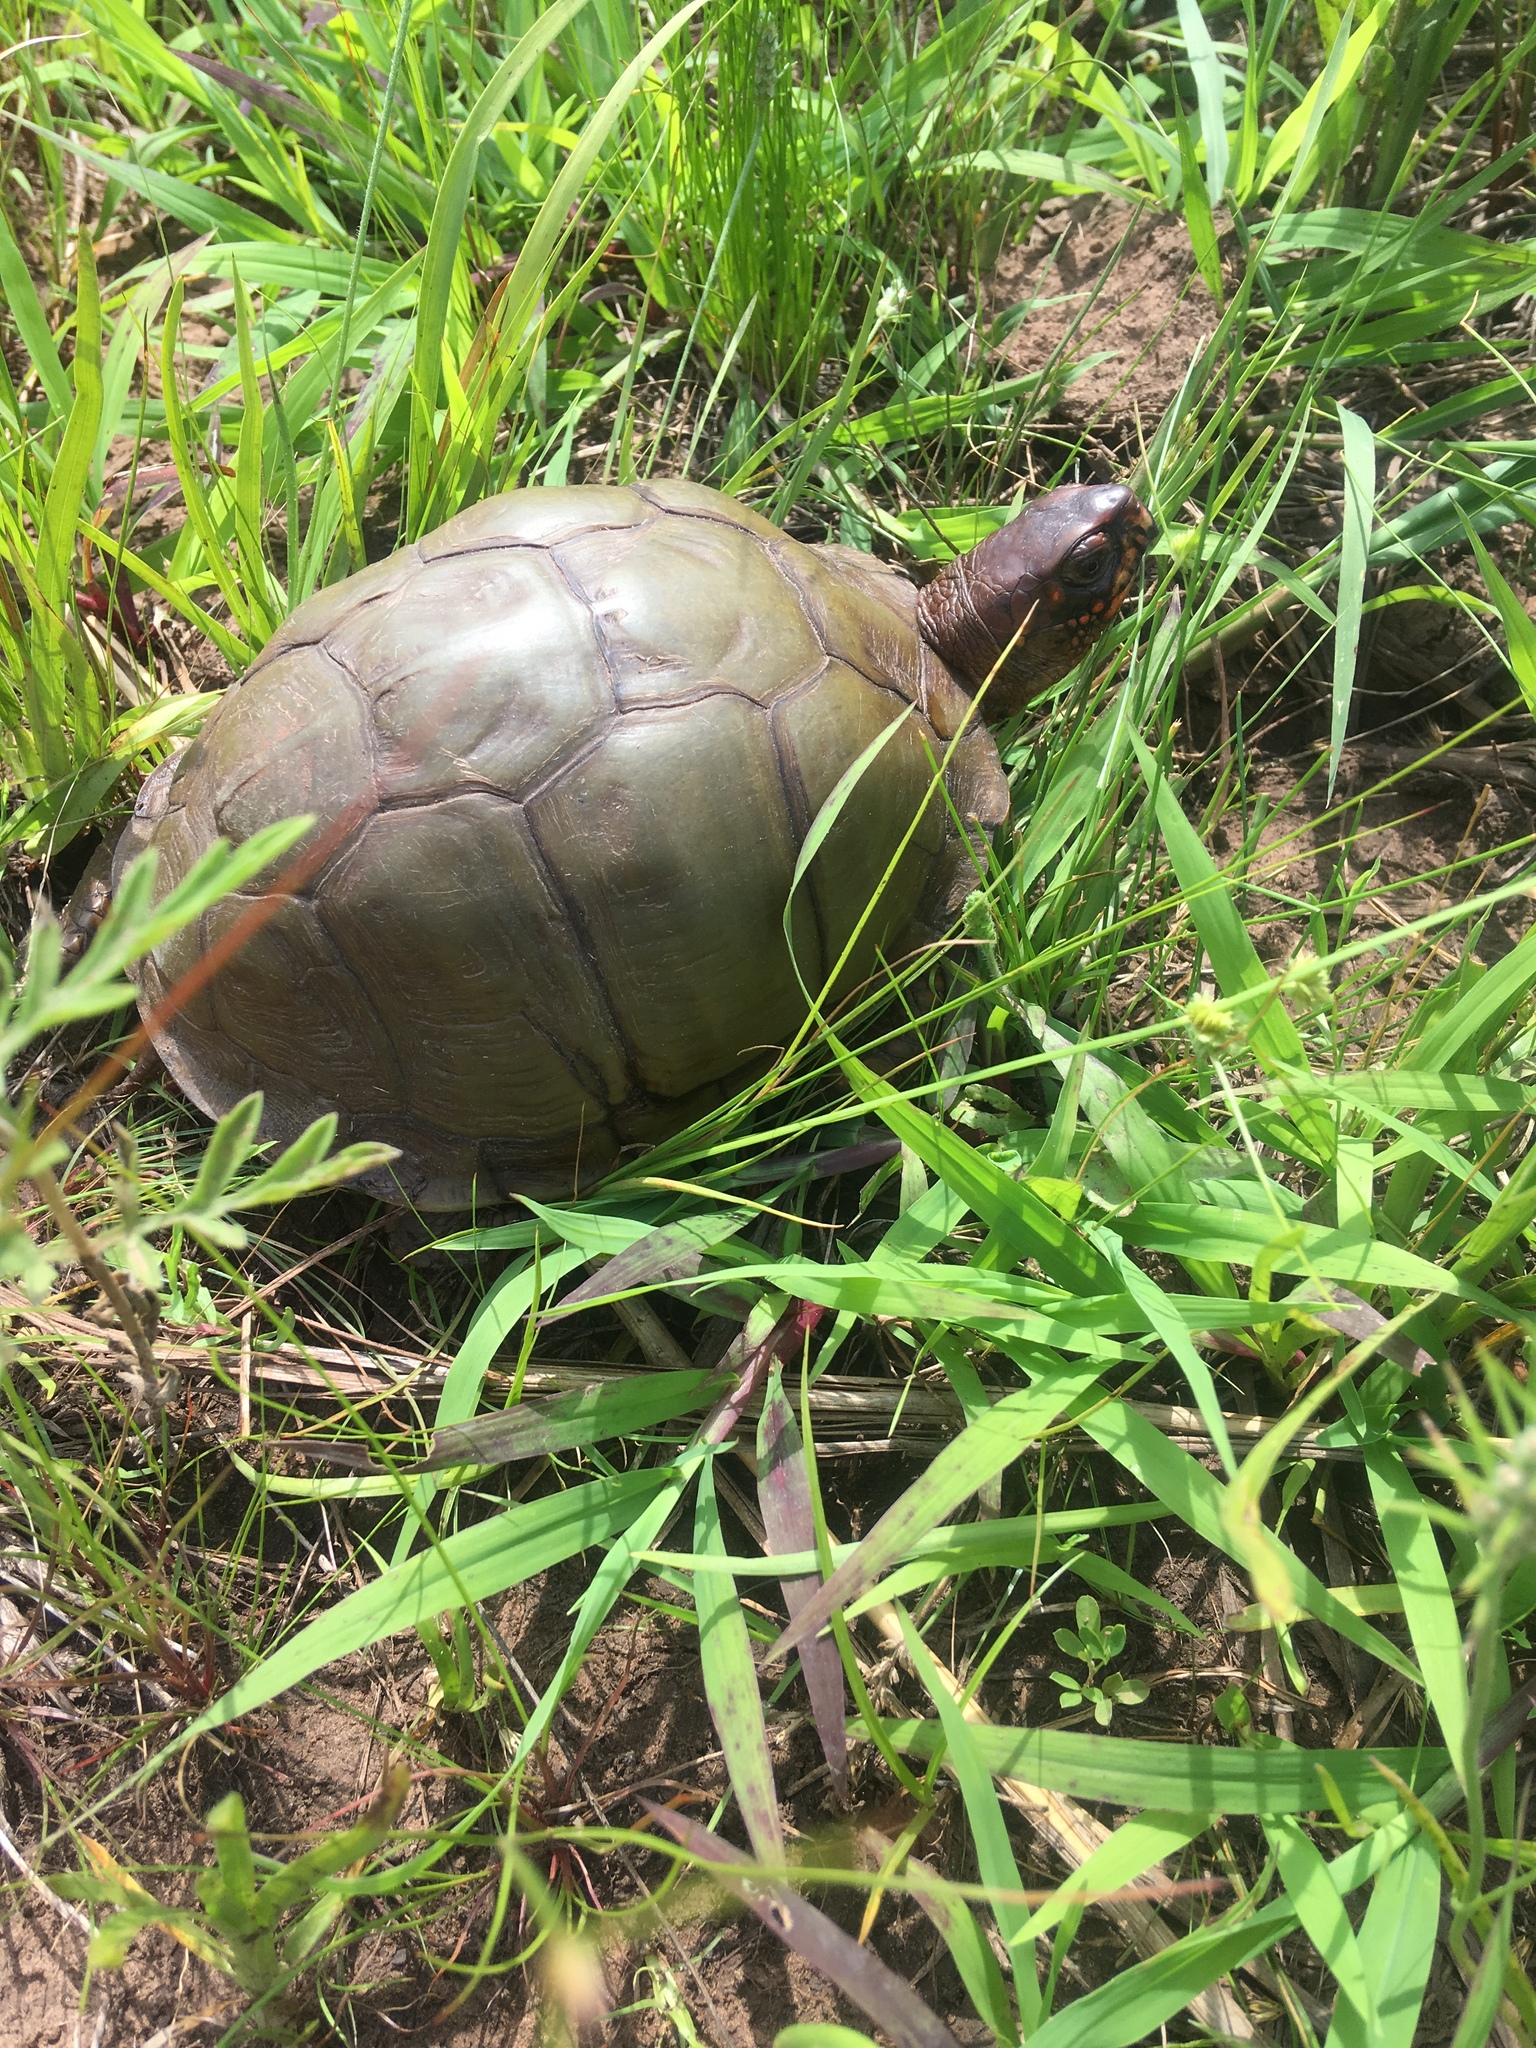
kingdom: Animalia
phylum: Chordata
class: Testudines
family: Emydidae
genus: Terrapene
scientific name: Terrapene carolina
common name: Common box turtle
